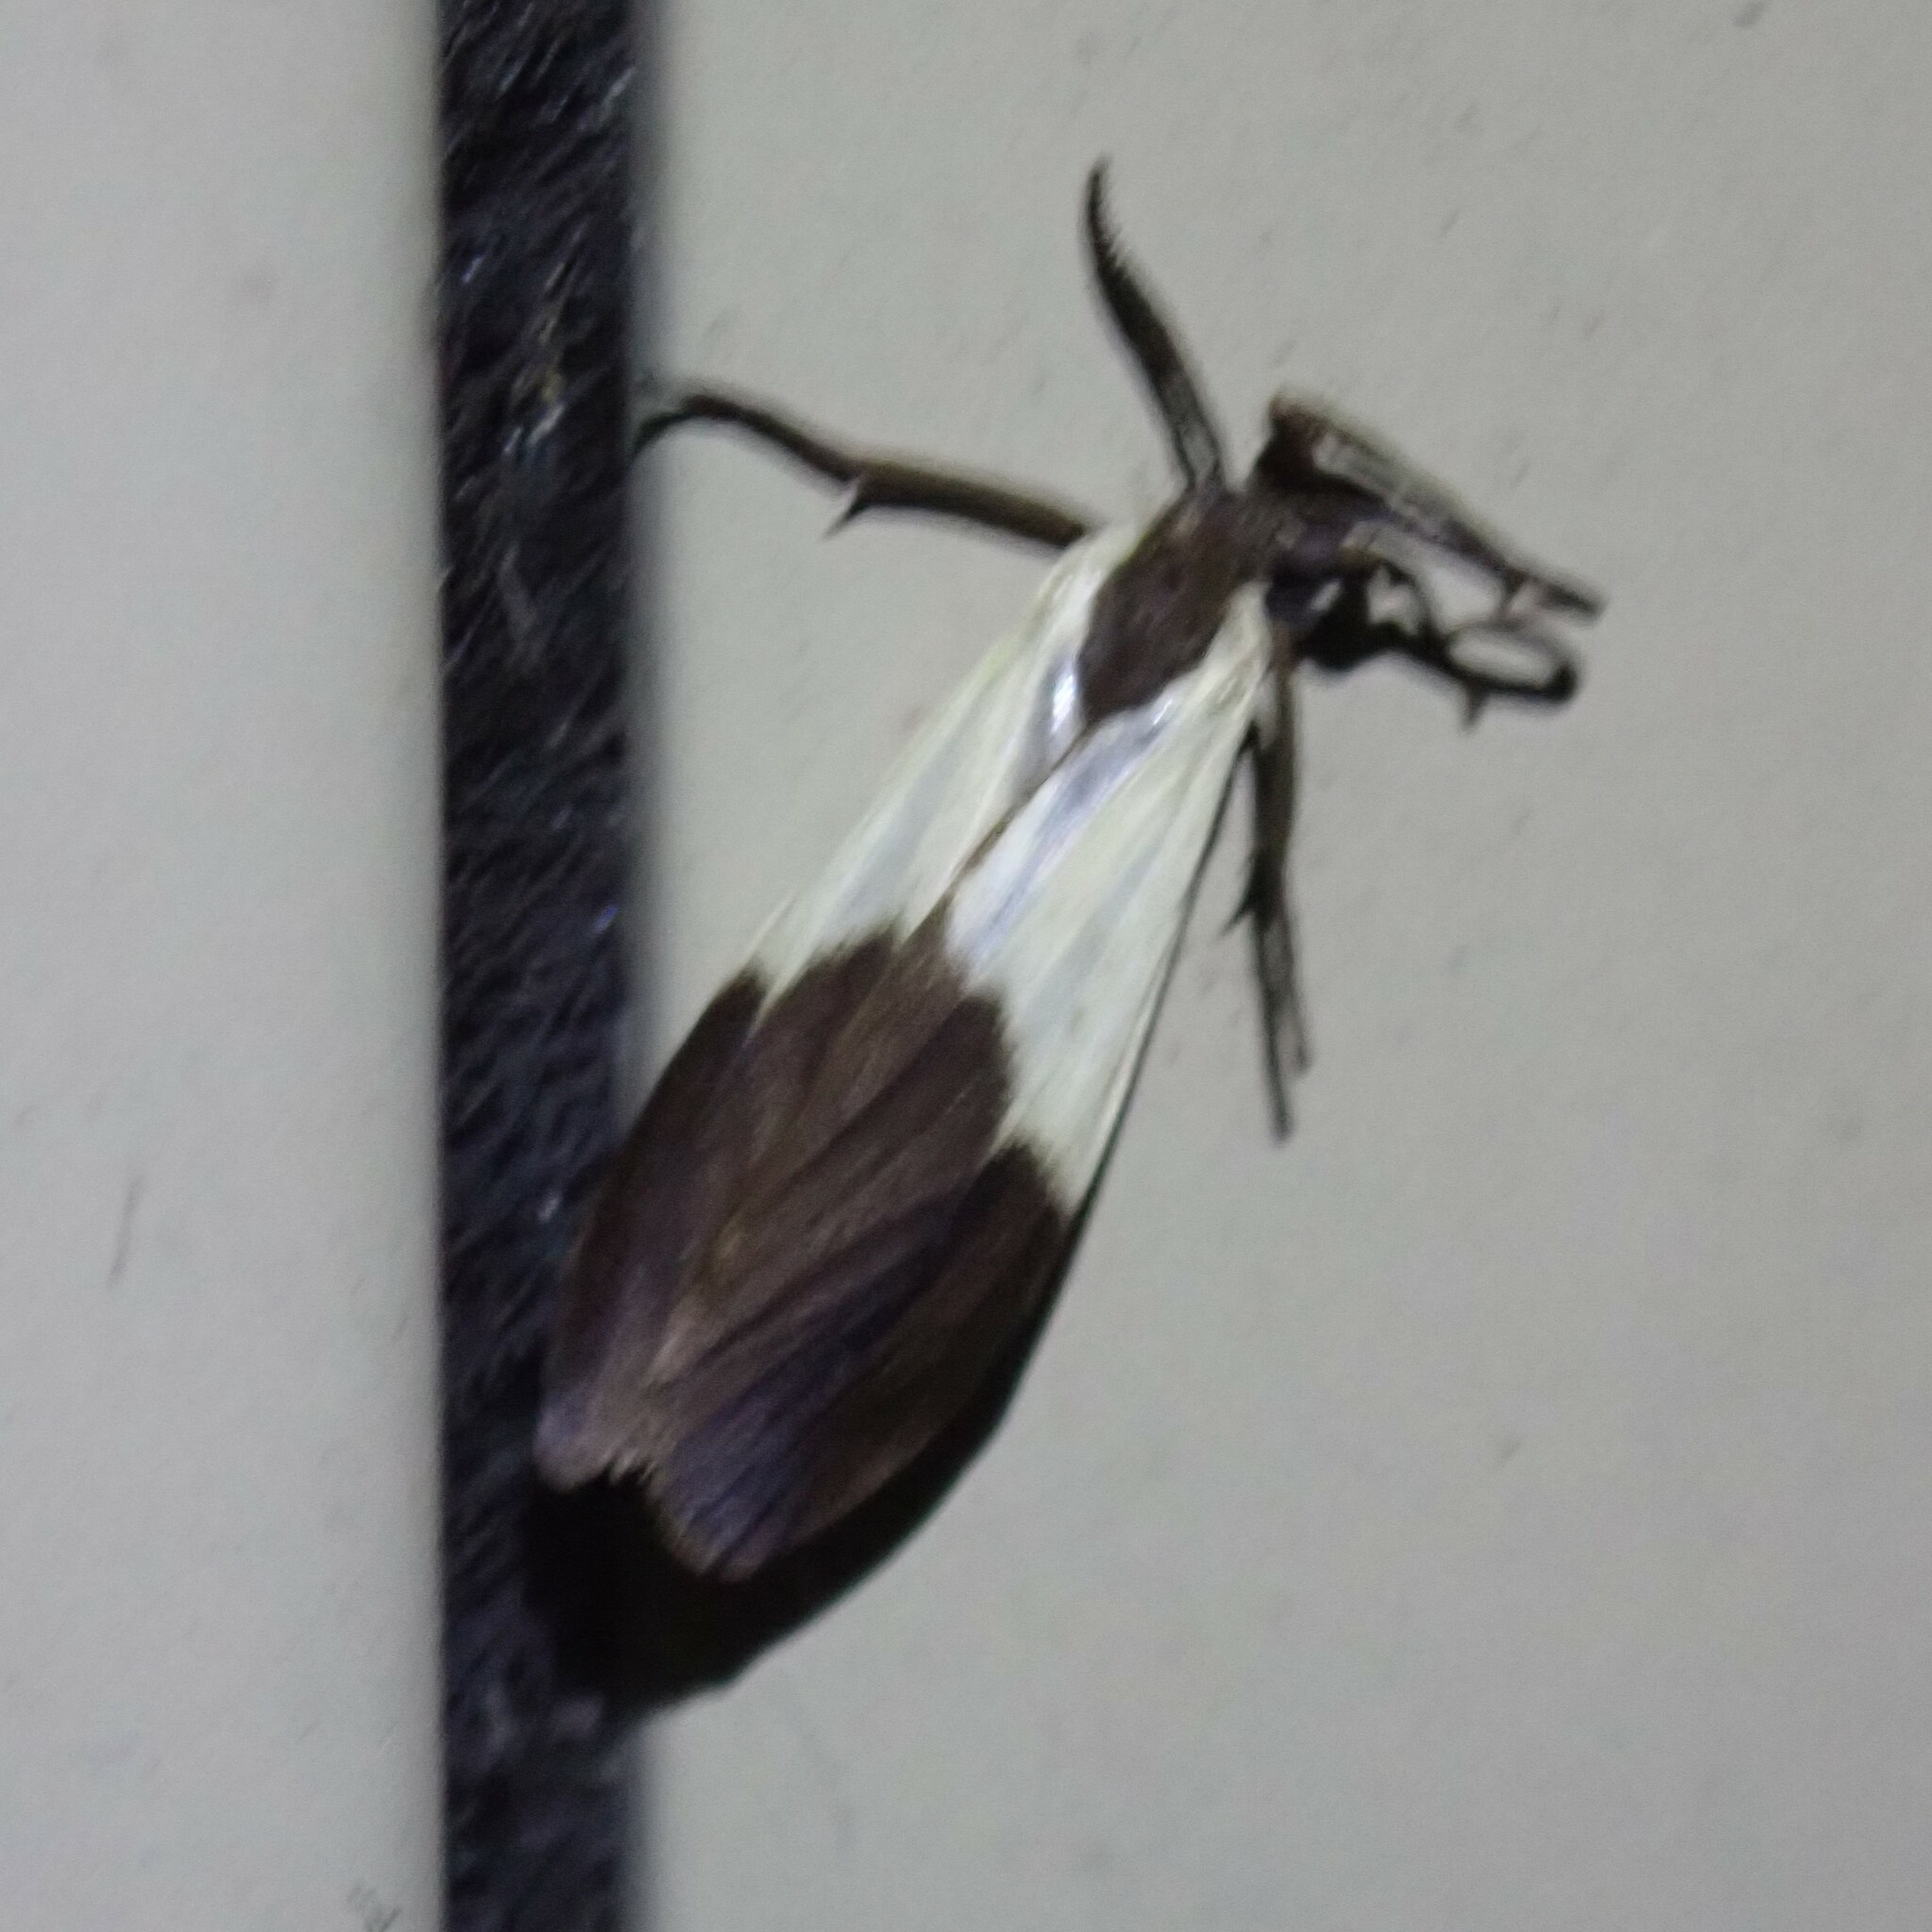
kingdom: Animalia
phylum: Arthropoda
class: Insecta
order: Lepidoptera
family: Erebidae
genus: Lycomorpha
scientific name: Lycomorpha pholus
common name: Black-and-yellow lichen moth
